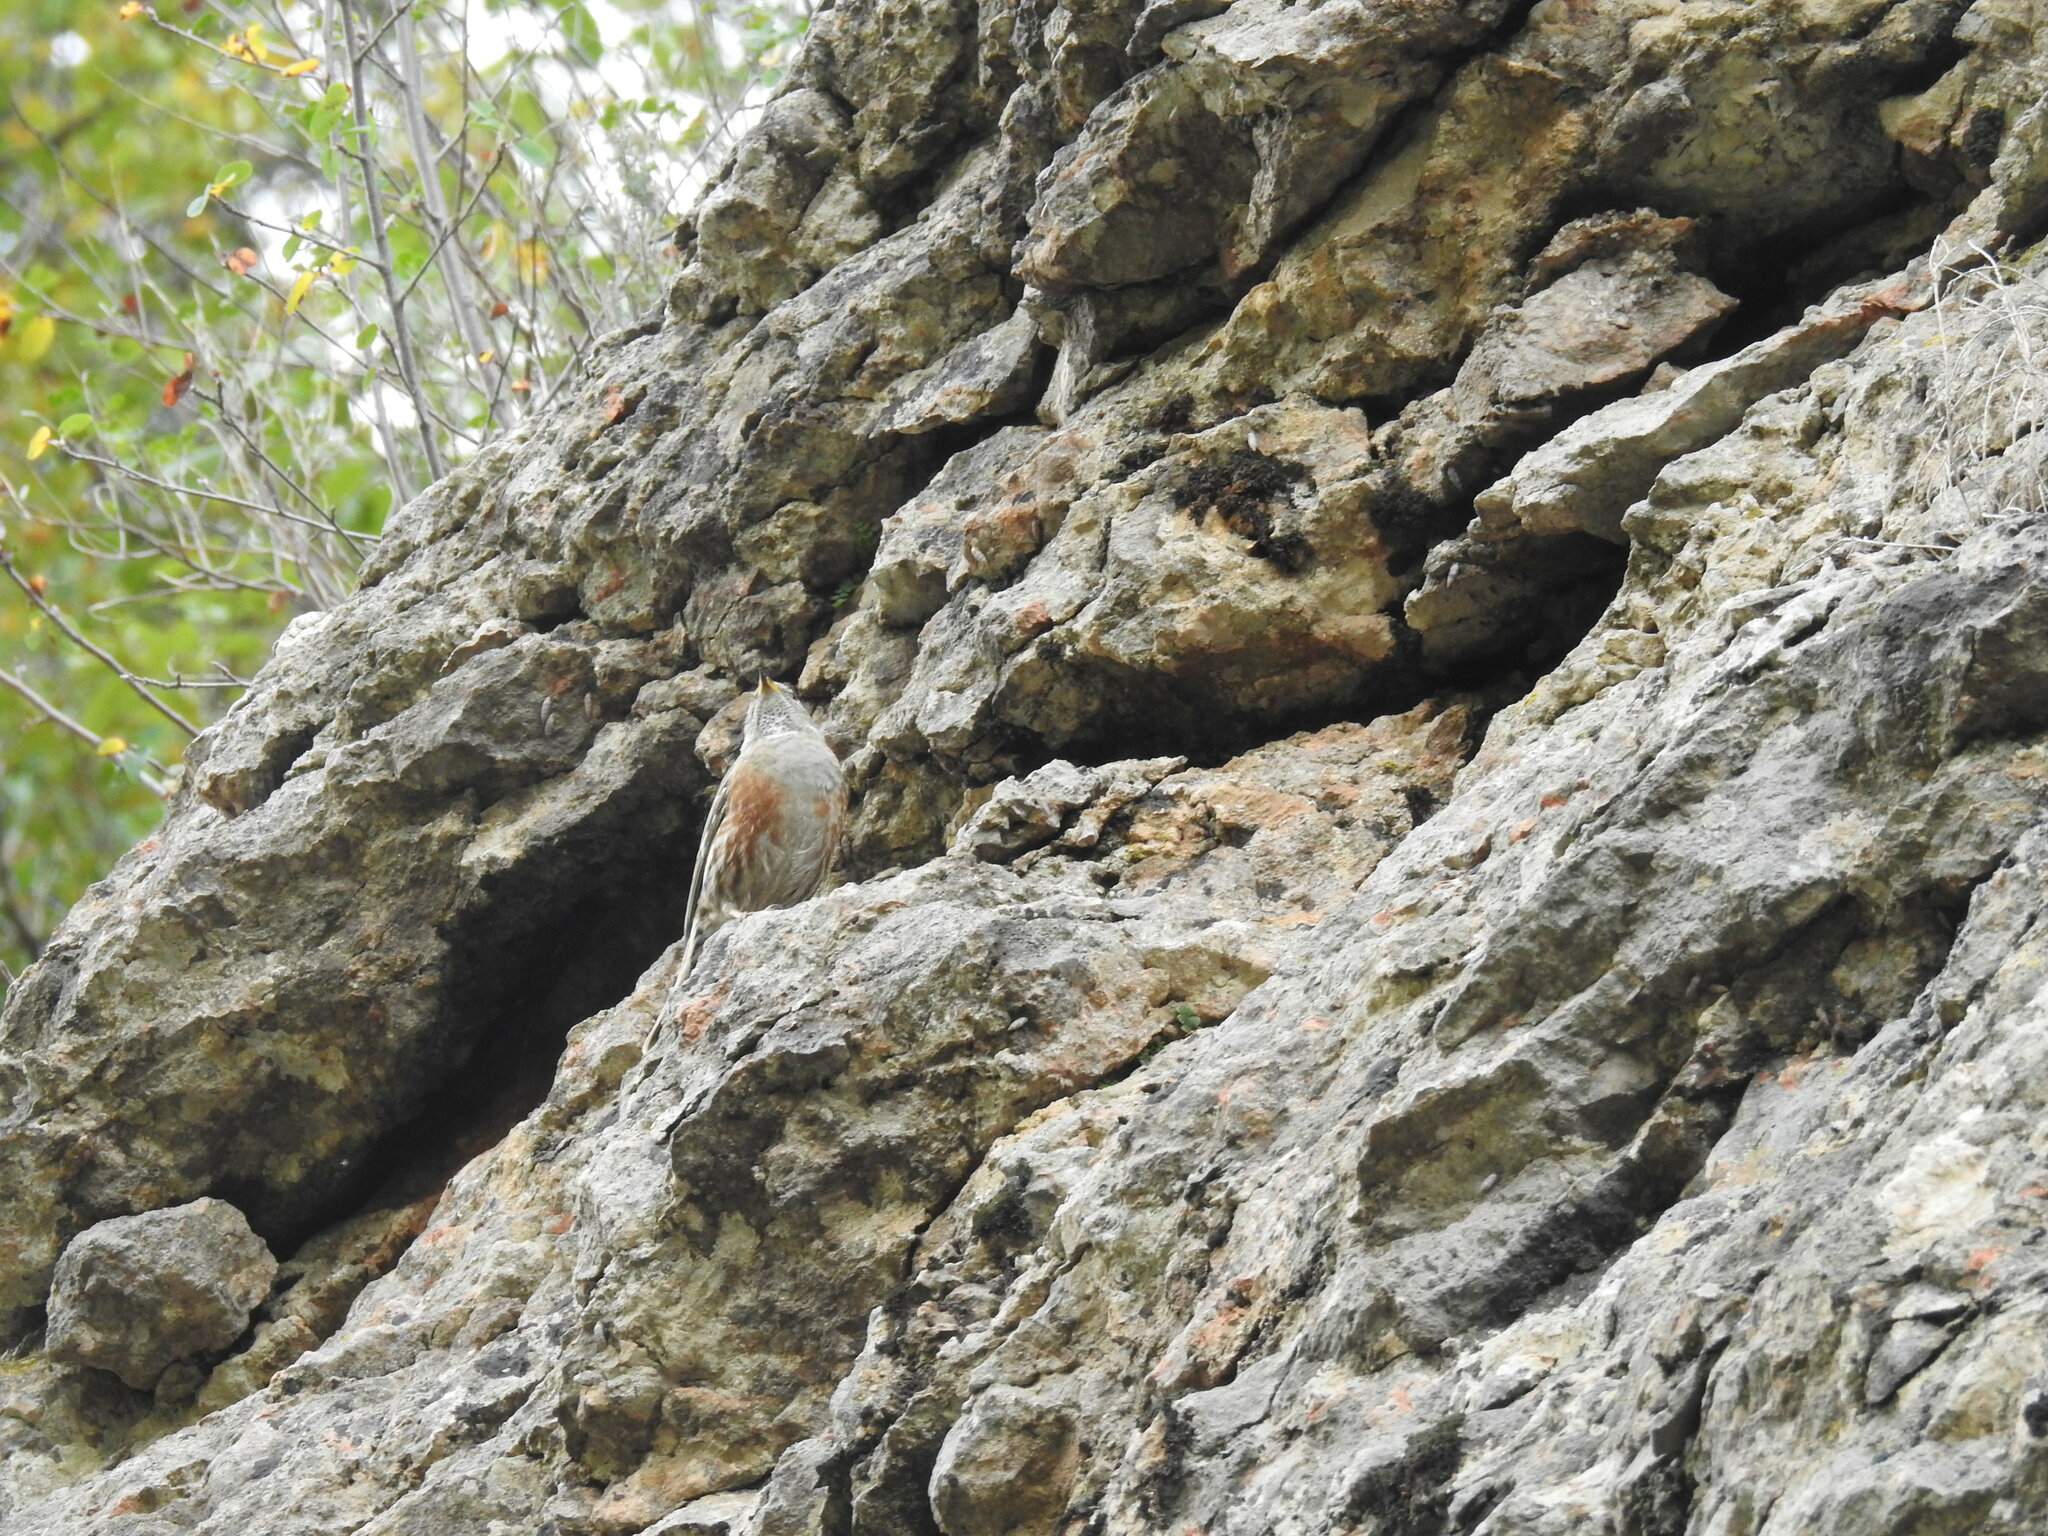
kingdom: Animalia
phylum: Chordata
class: Aves
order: Passeriformes
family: Prunellidae
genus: Prunella
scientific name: Prunella collaris
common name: Alpine accentor
